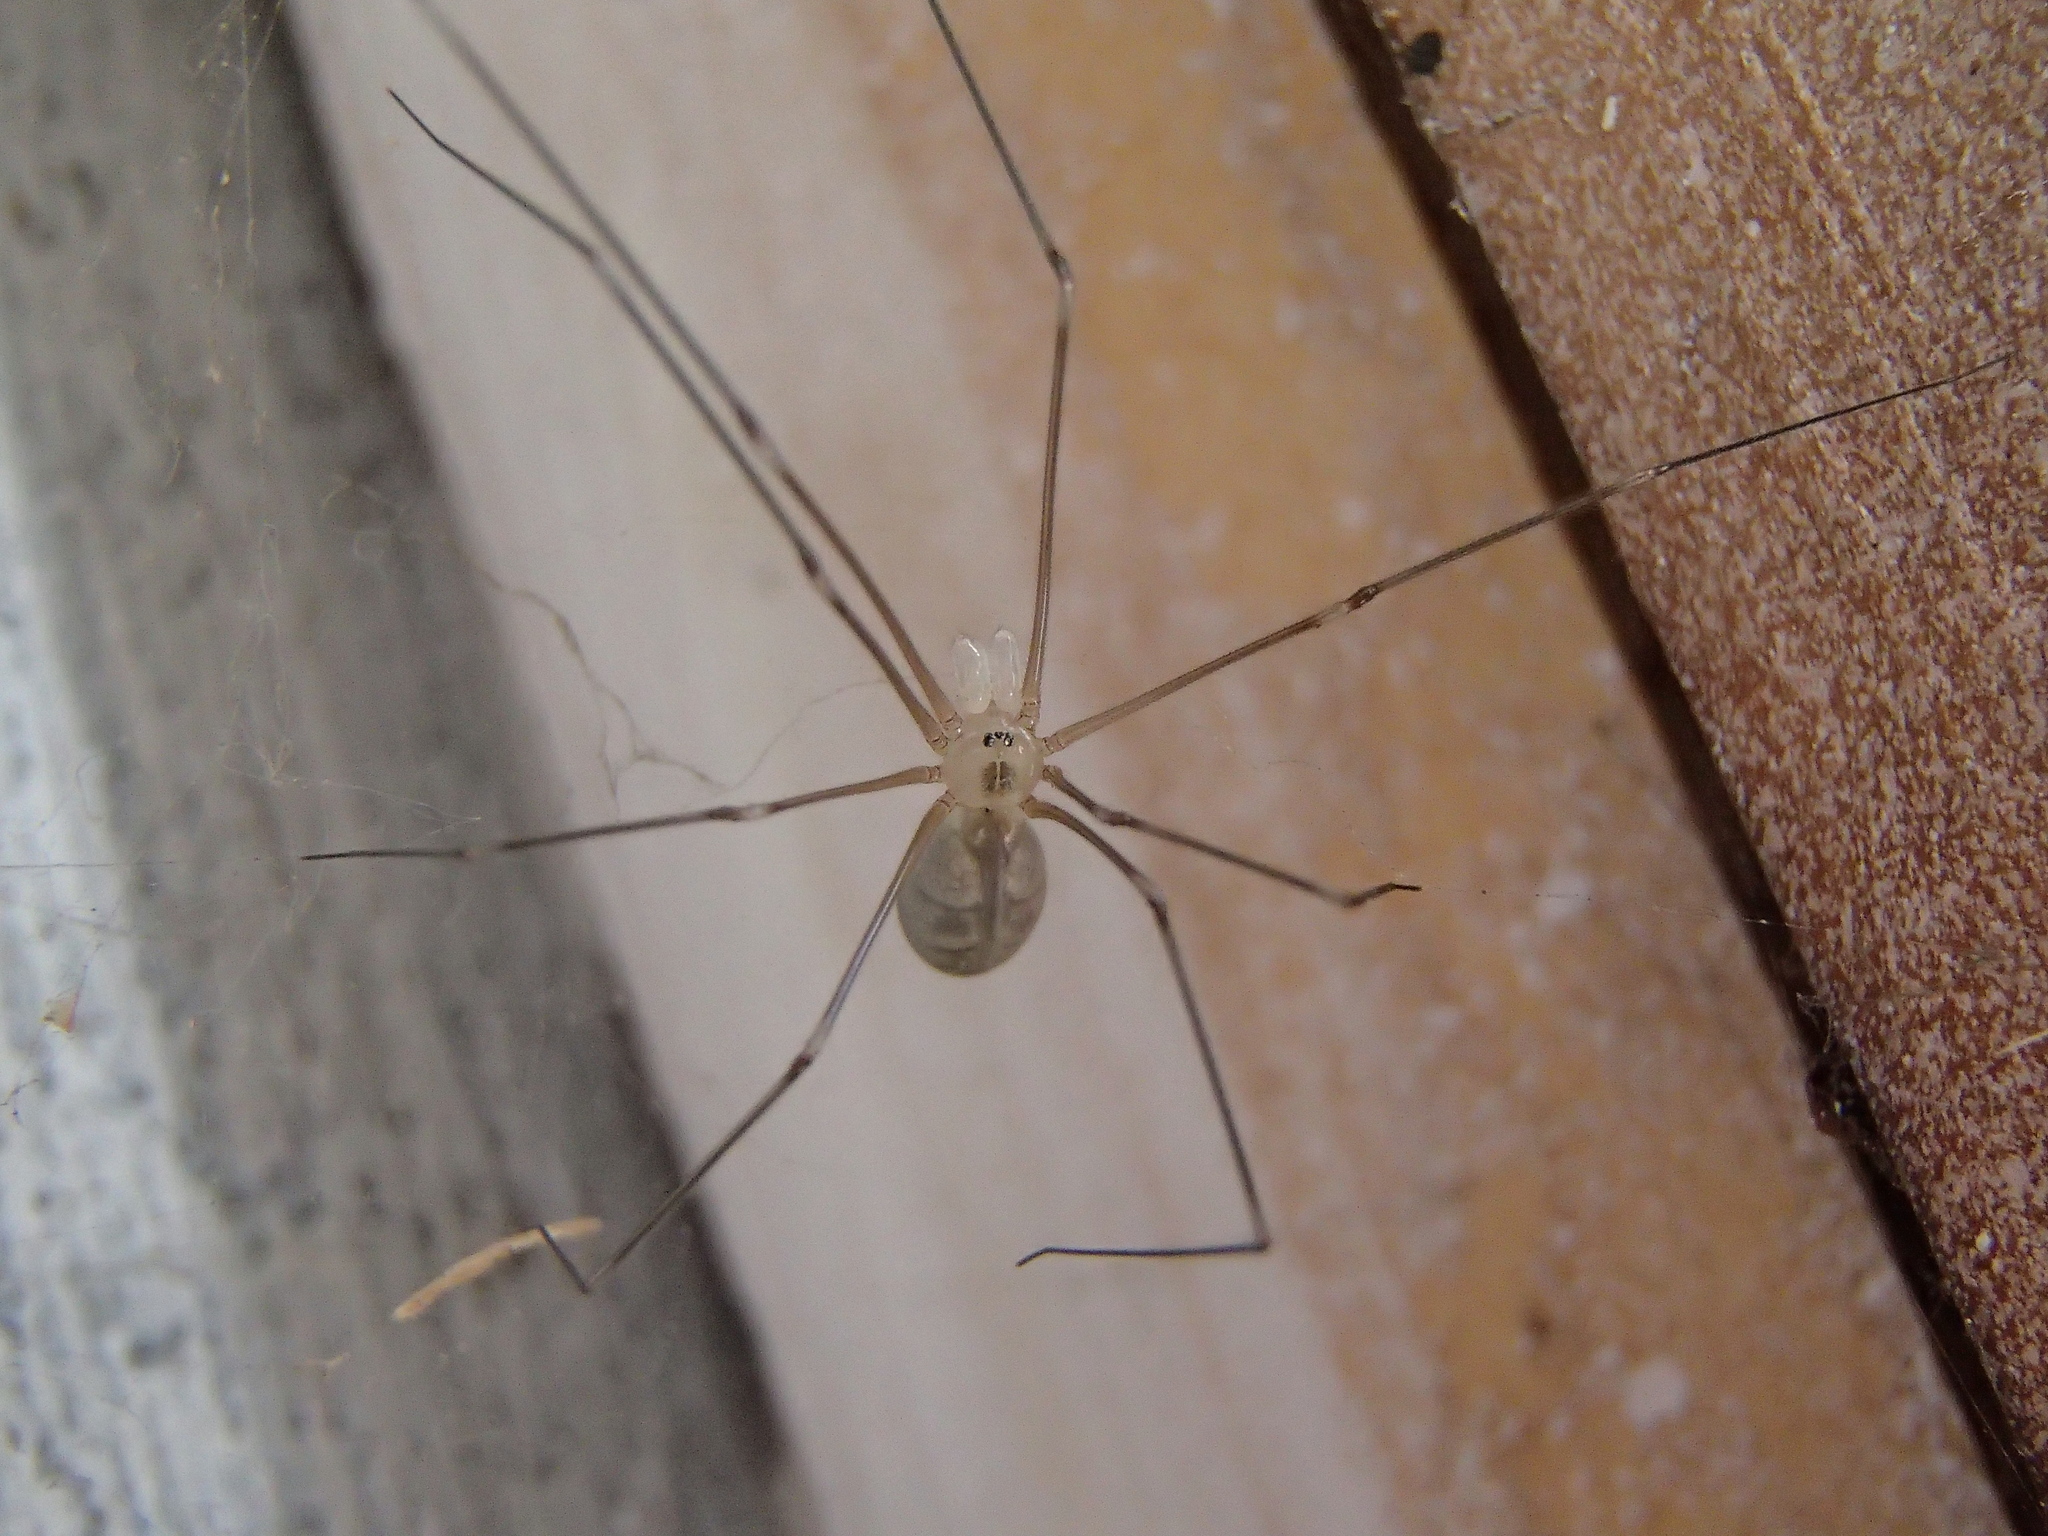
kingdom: Animalia
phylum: Arthropoda
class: Arachnida
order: Araneae
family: Pholcidae
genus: Pholcus
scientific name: Pholcus phalangioides
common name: Longbodied cellar spider
